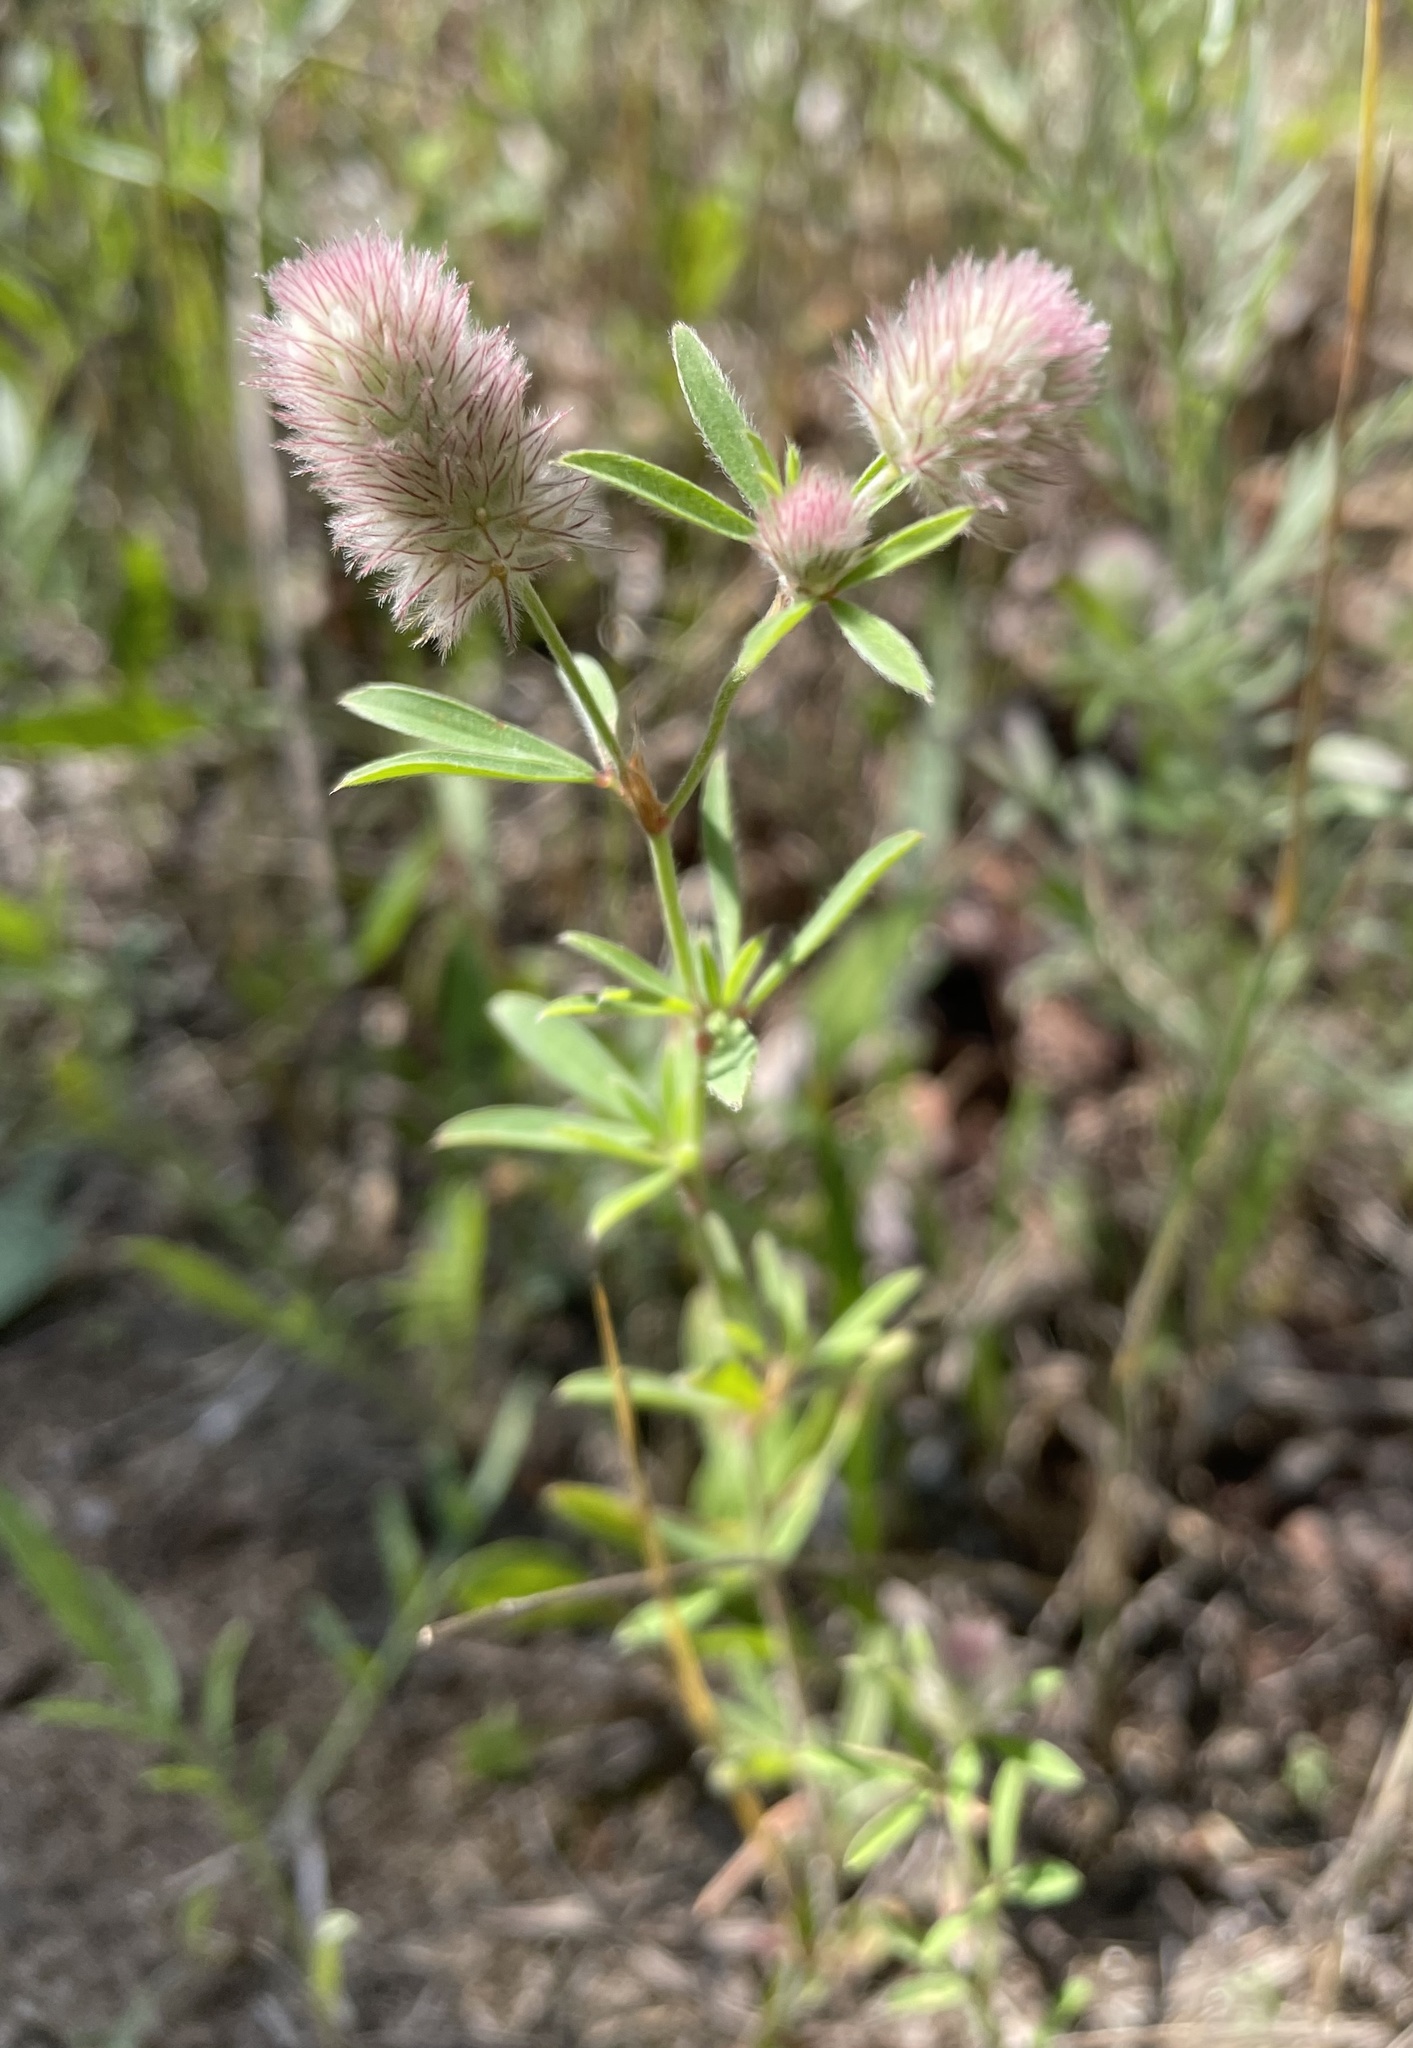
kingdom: Plantae
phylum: Tracheophyta
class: Magnoliopsida
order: Fabales
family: Fabaceae
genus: Trifolium
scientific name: Trifolium arvense
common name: Hare's-foot clover
